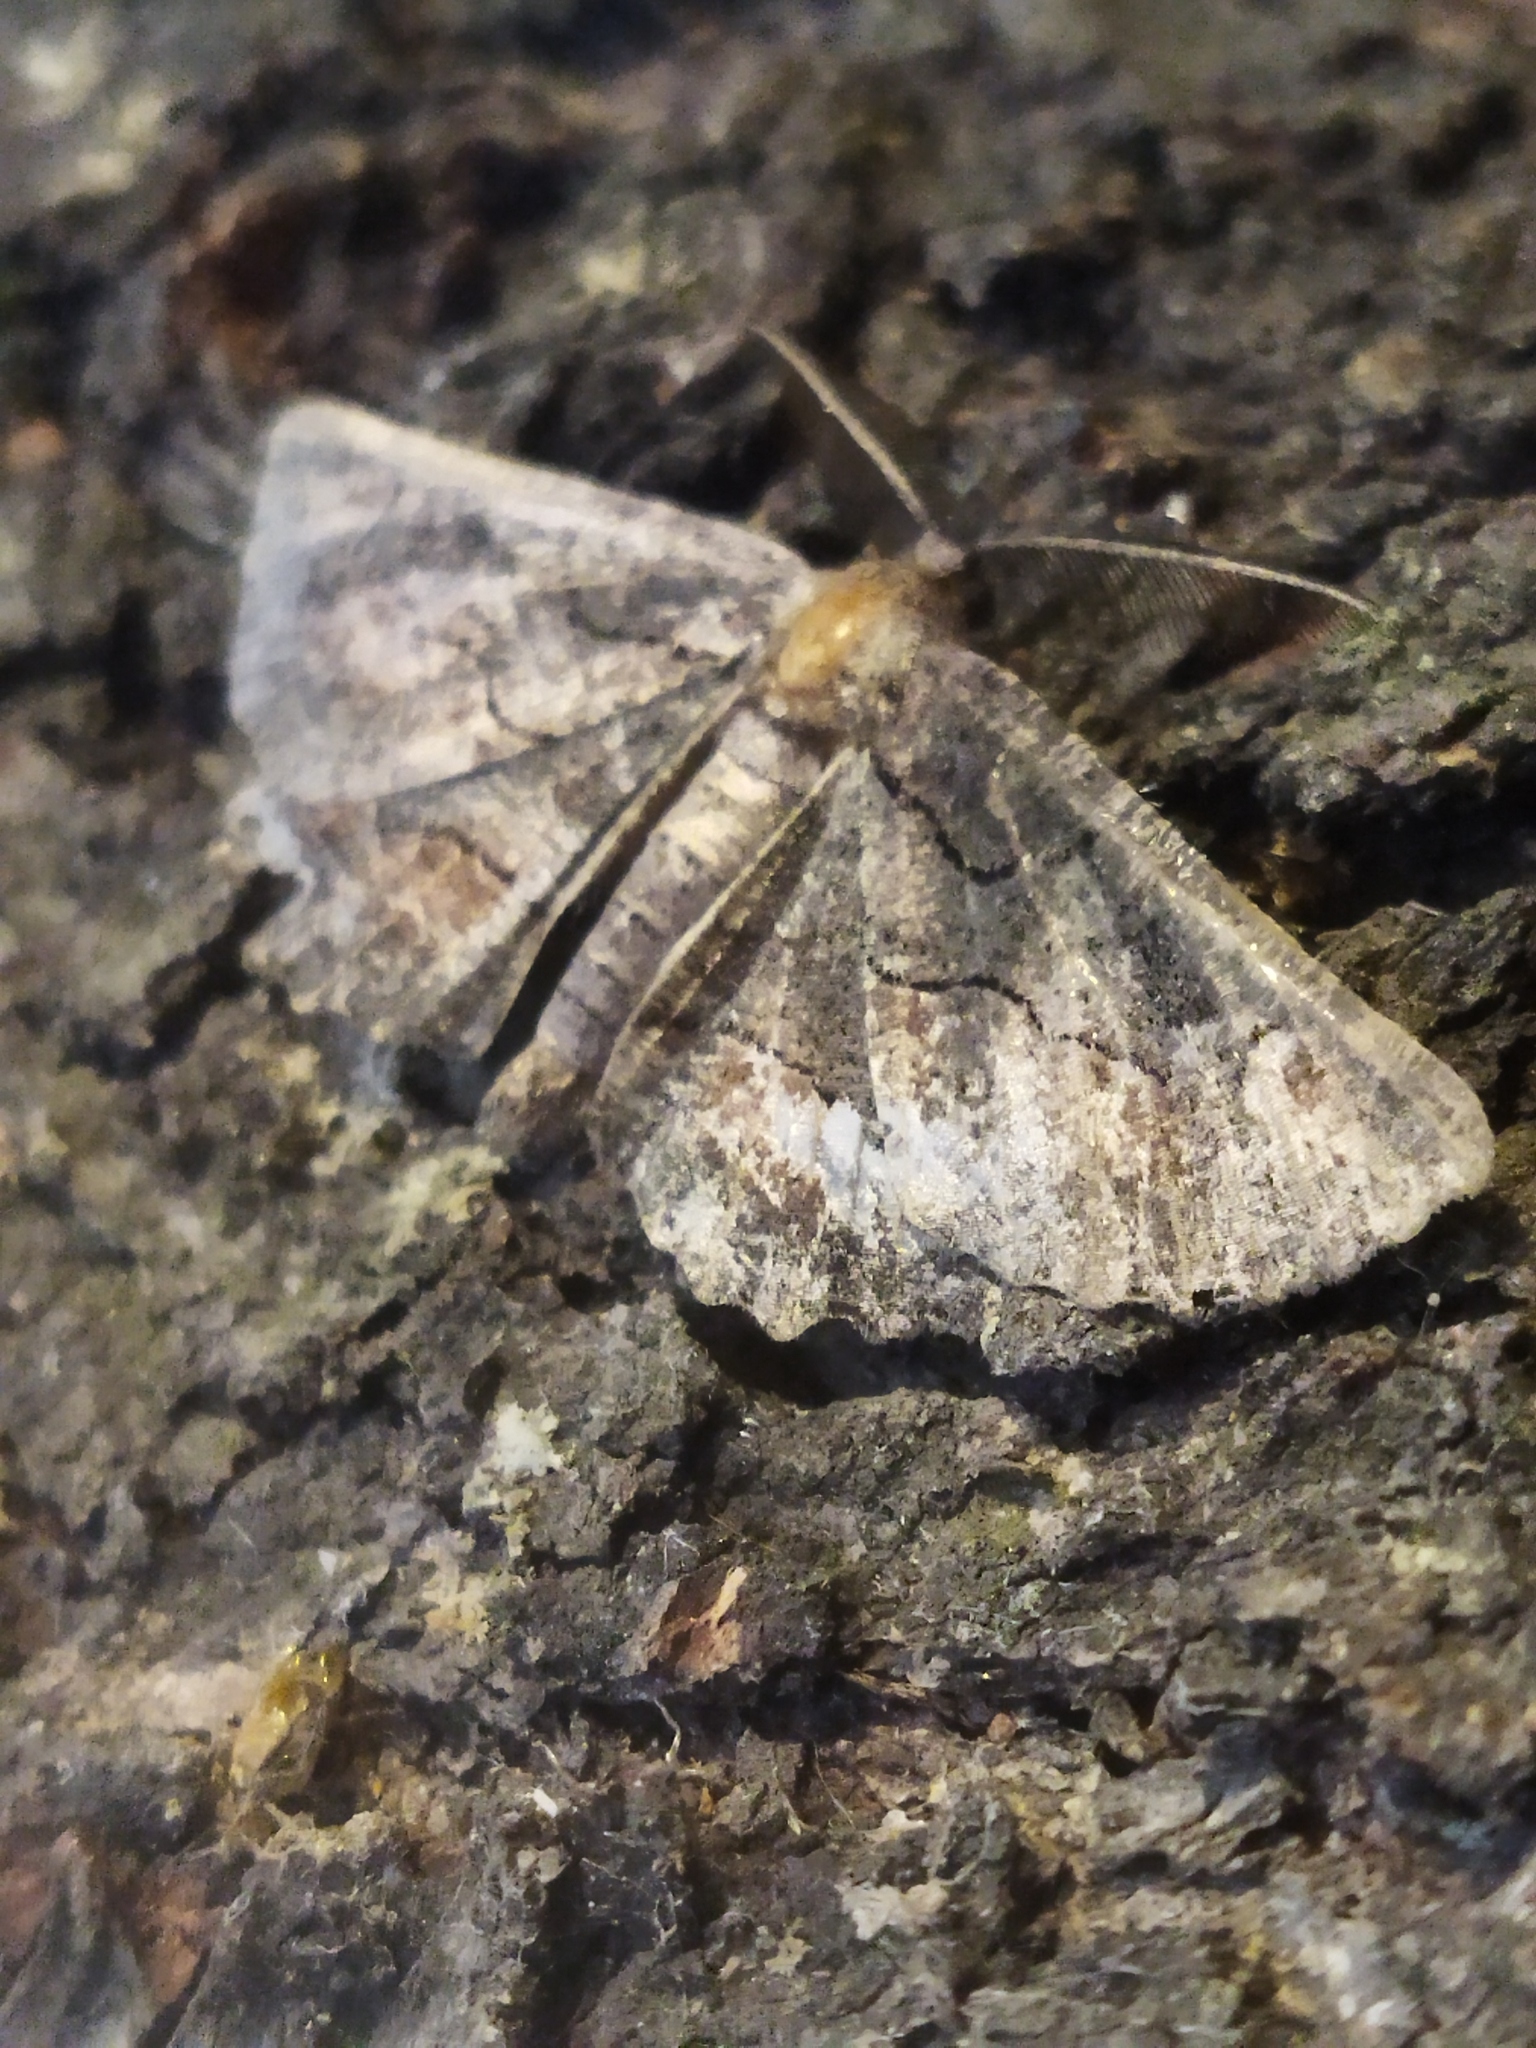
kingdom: Animalia
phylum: Arthropoda
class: Insecta
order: Lepidoptera
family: Geometridae
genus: Nychiodes
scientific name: Nychiodes waltheri
